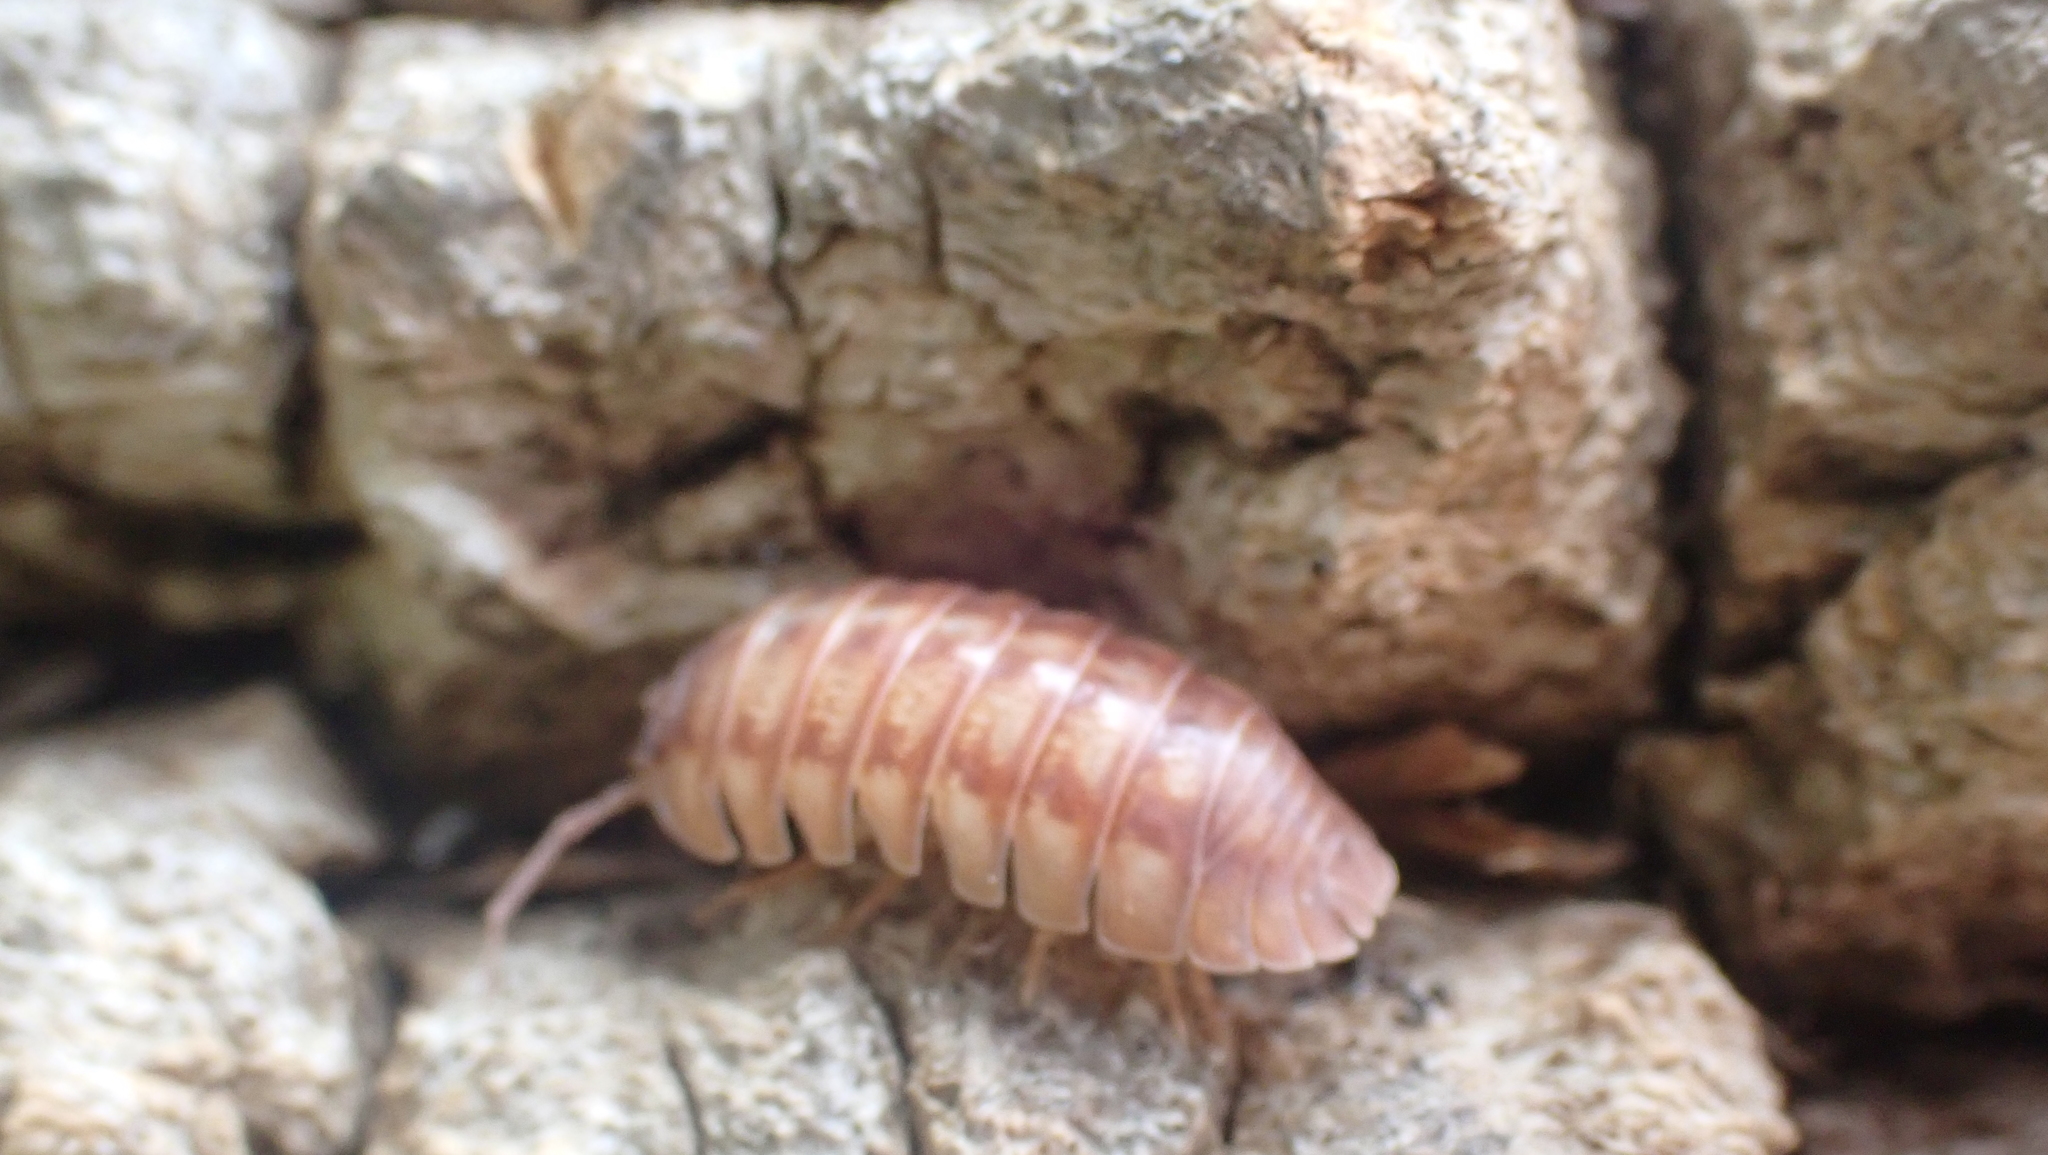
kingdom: Animalia
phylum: Arthropoda
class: Malacostraca
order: Isopoda
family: Armadillidiidae
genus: Armadillidium
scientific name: Armadillidium nasatum
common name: Isopod
